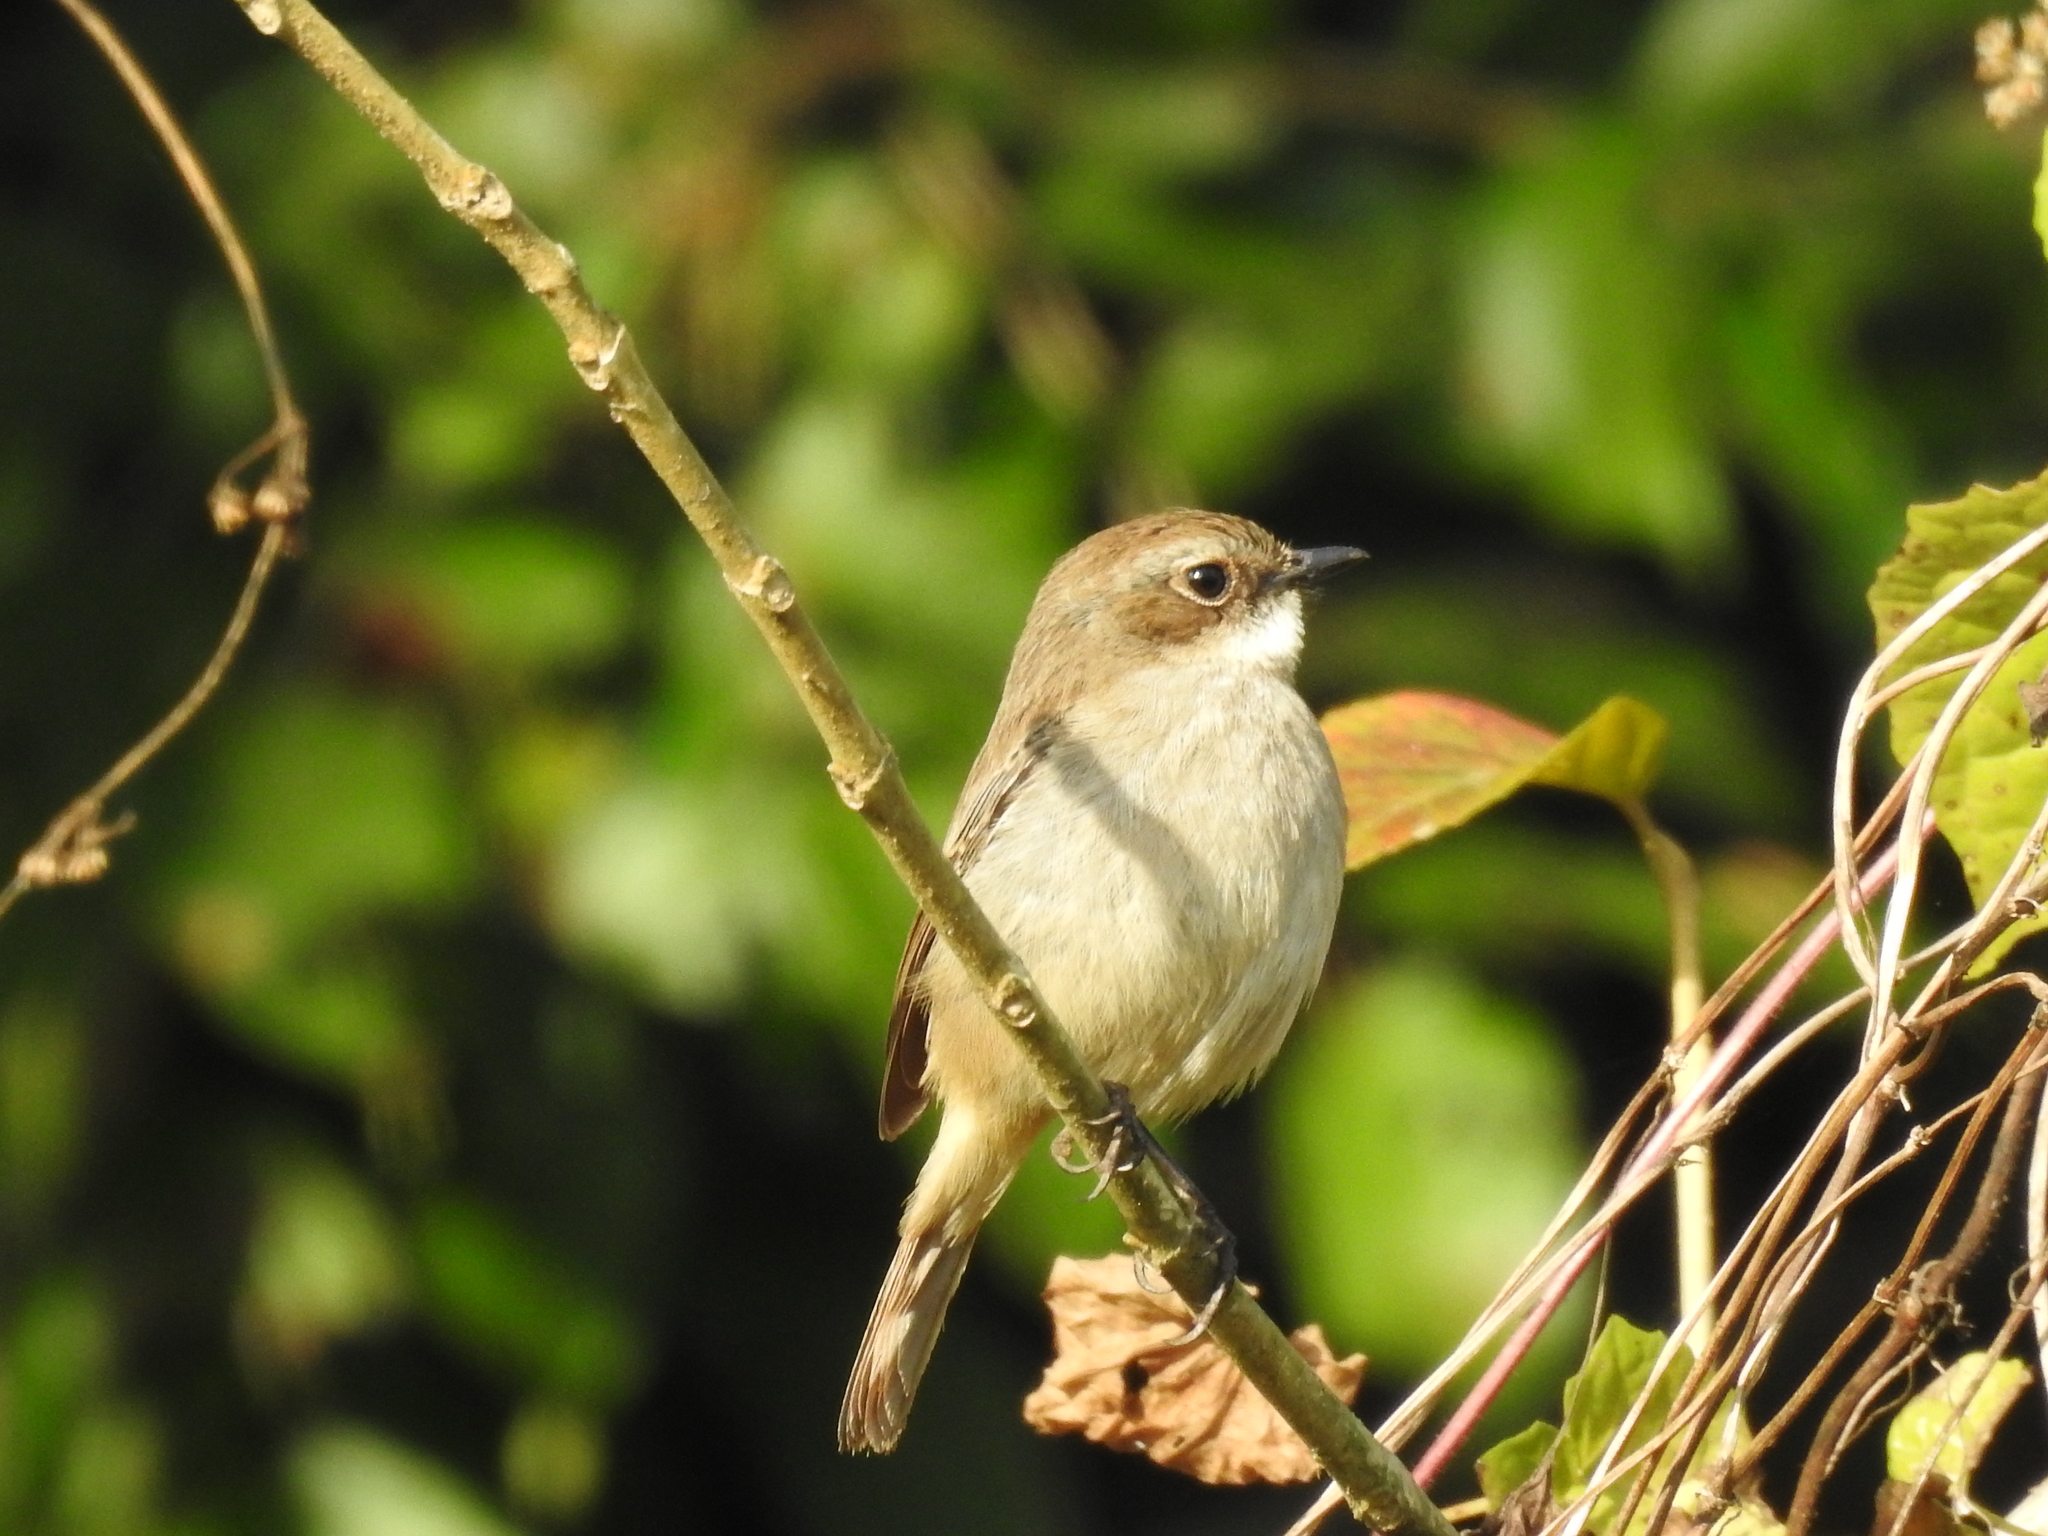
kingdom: Animalia
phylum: Chordata
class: Aves
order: Passeriformes
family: Muscicapidae
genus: Saxicola
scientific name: Saxicola ferreus
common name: Grey bush chat
